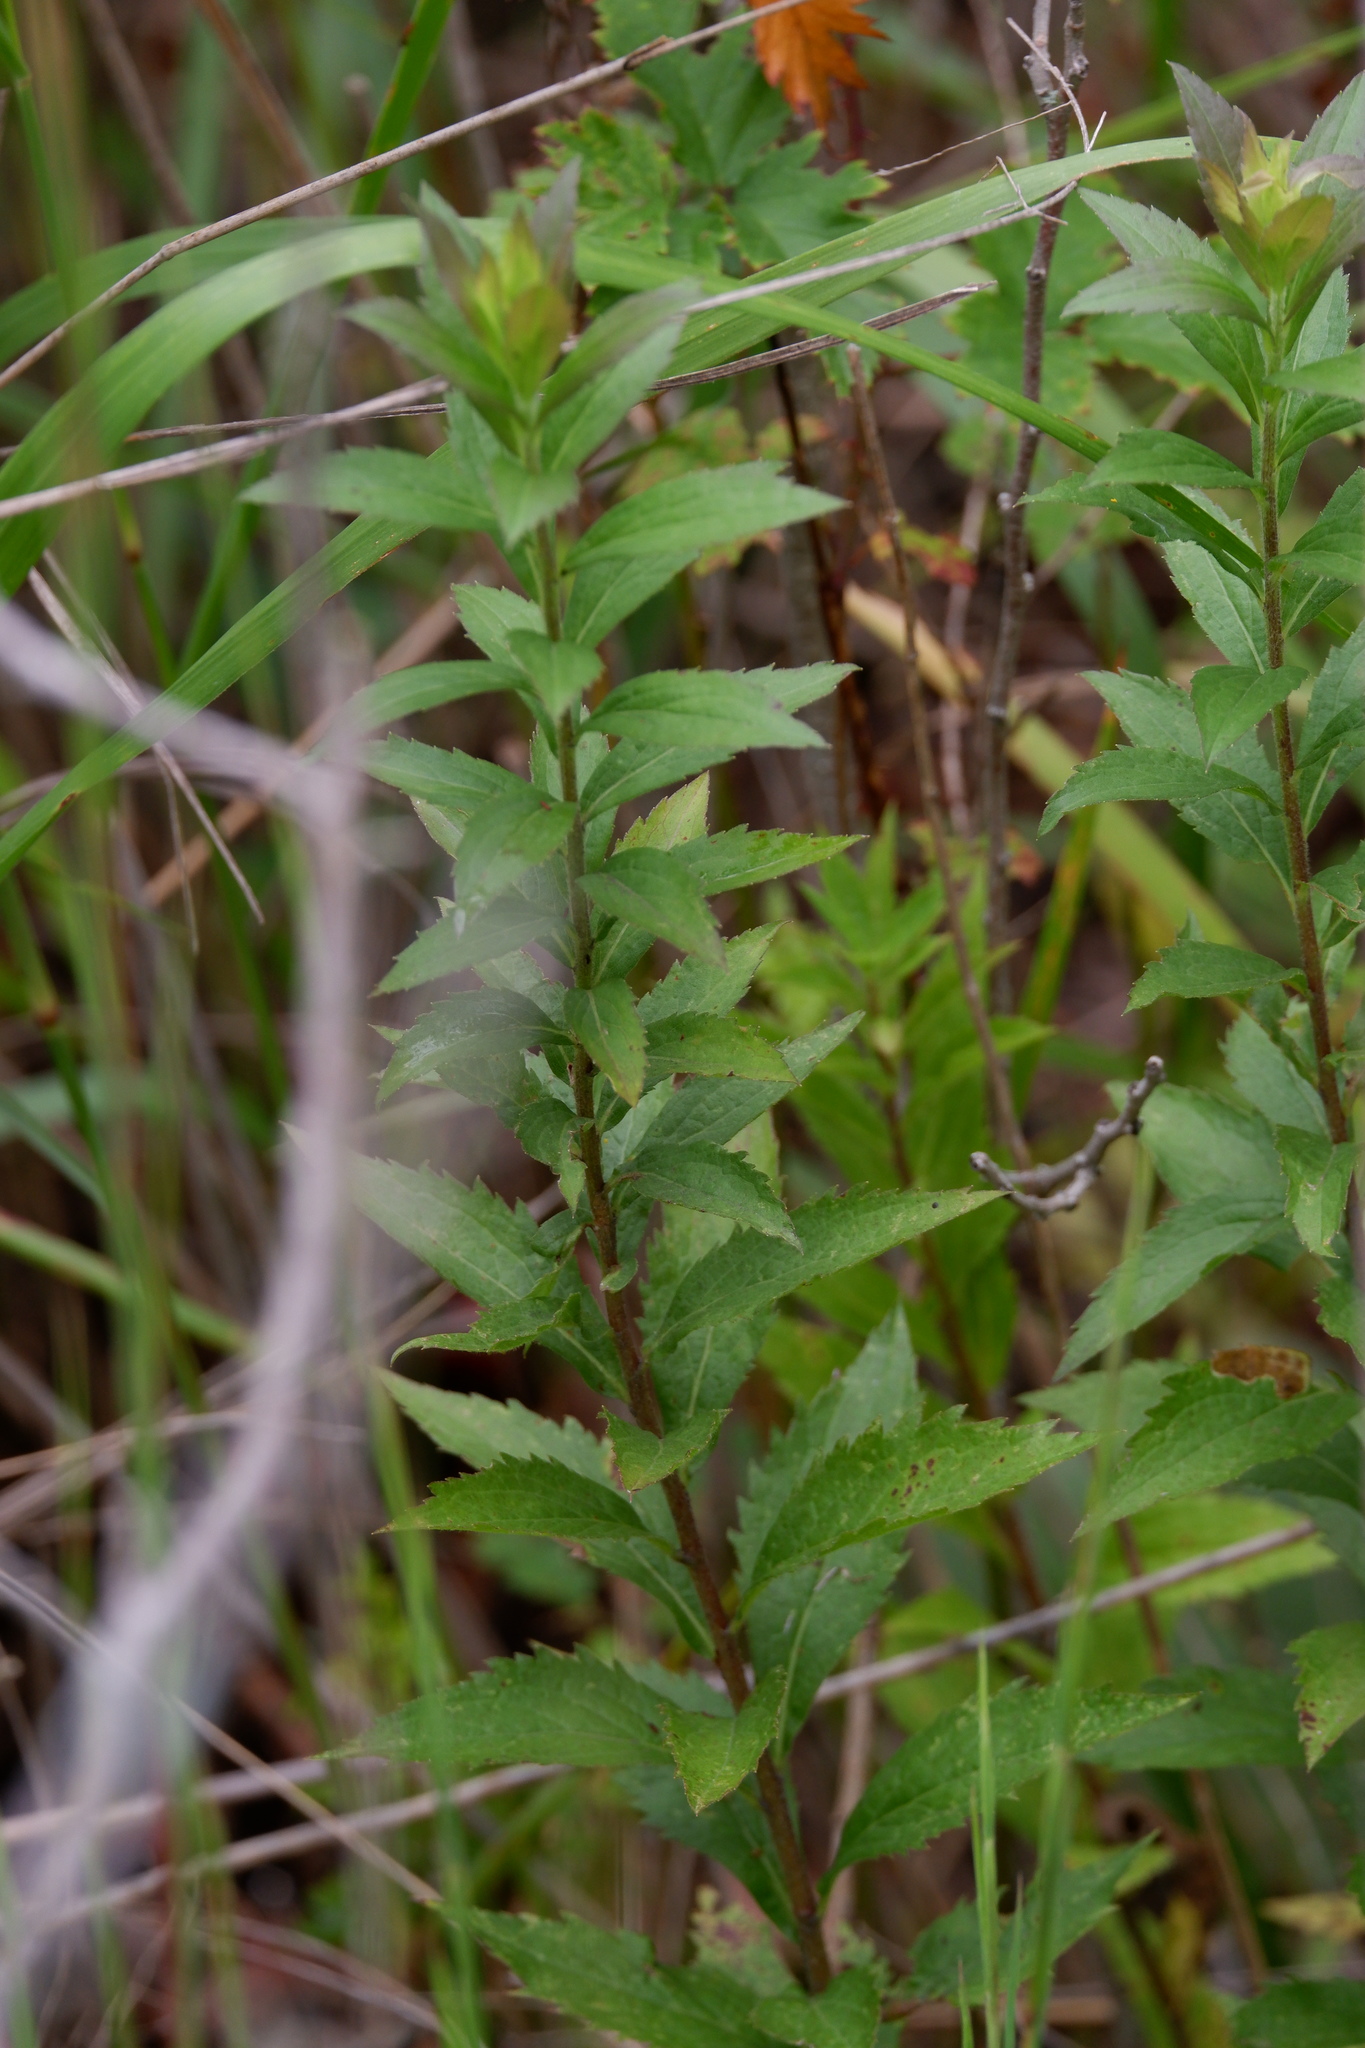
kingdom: Plantae
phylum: Tracheophyta
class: Magnoliopsida
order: Asterales
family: Asteraceae
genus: Solidago
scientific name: Solidago rugosa
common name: Rough-stemmed goldenrod
